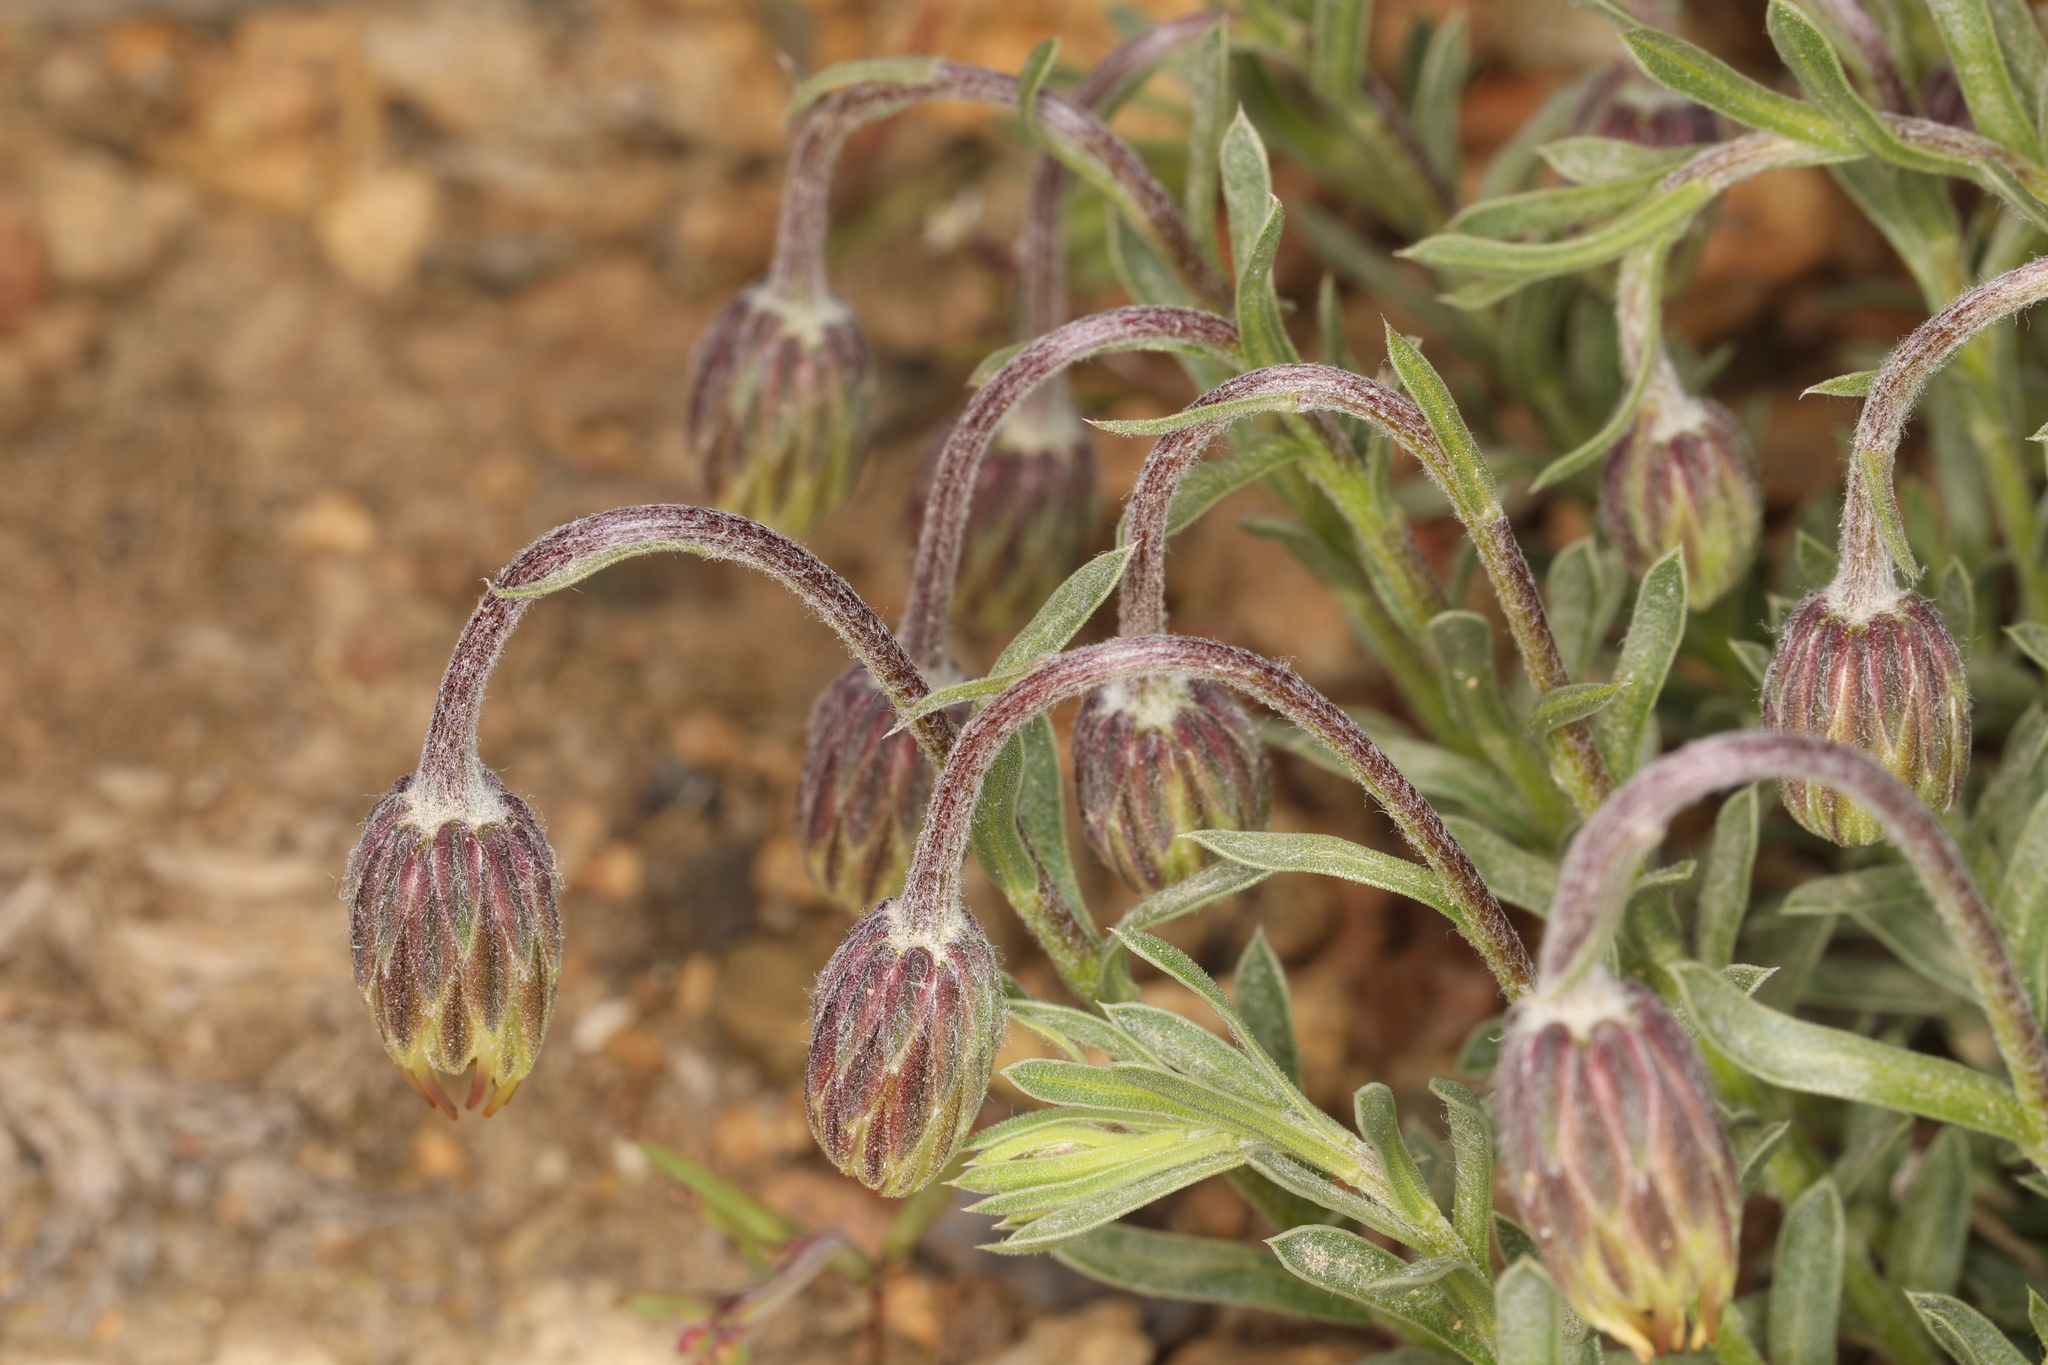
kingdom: Plantae
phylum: Tracheophyta
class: Magnoliopsida
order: Asterales
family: Asteraceae
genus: Ionactis
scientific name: Ionactis alpina
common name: Crag aster
